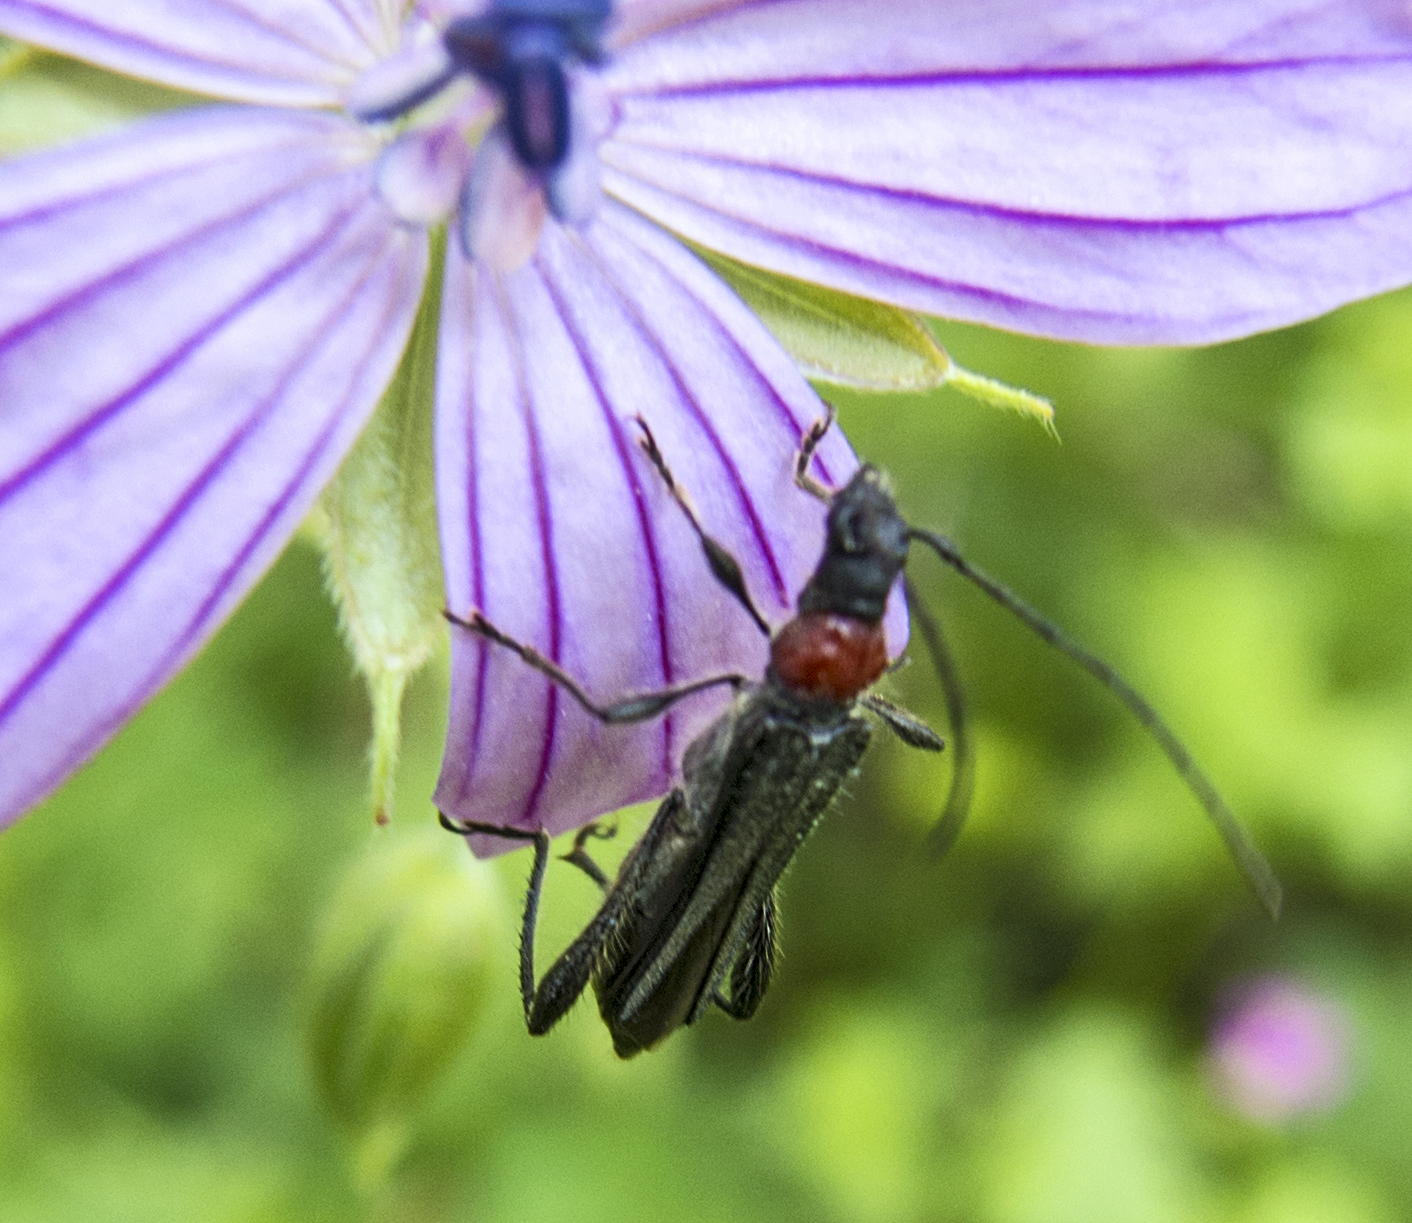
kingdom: Animalia
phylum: Arthropoda
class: Insecta
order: Coleoptera
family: Cerambycidae
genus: Callimoxys
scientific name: Callimoxys gracilis
